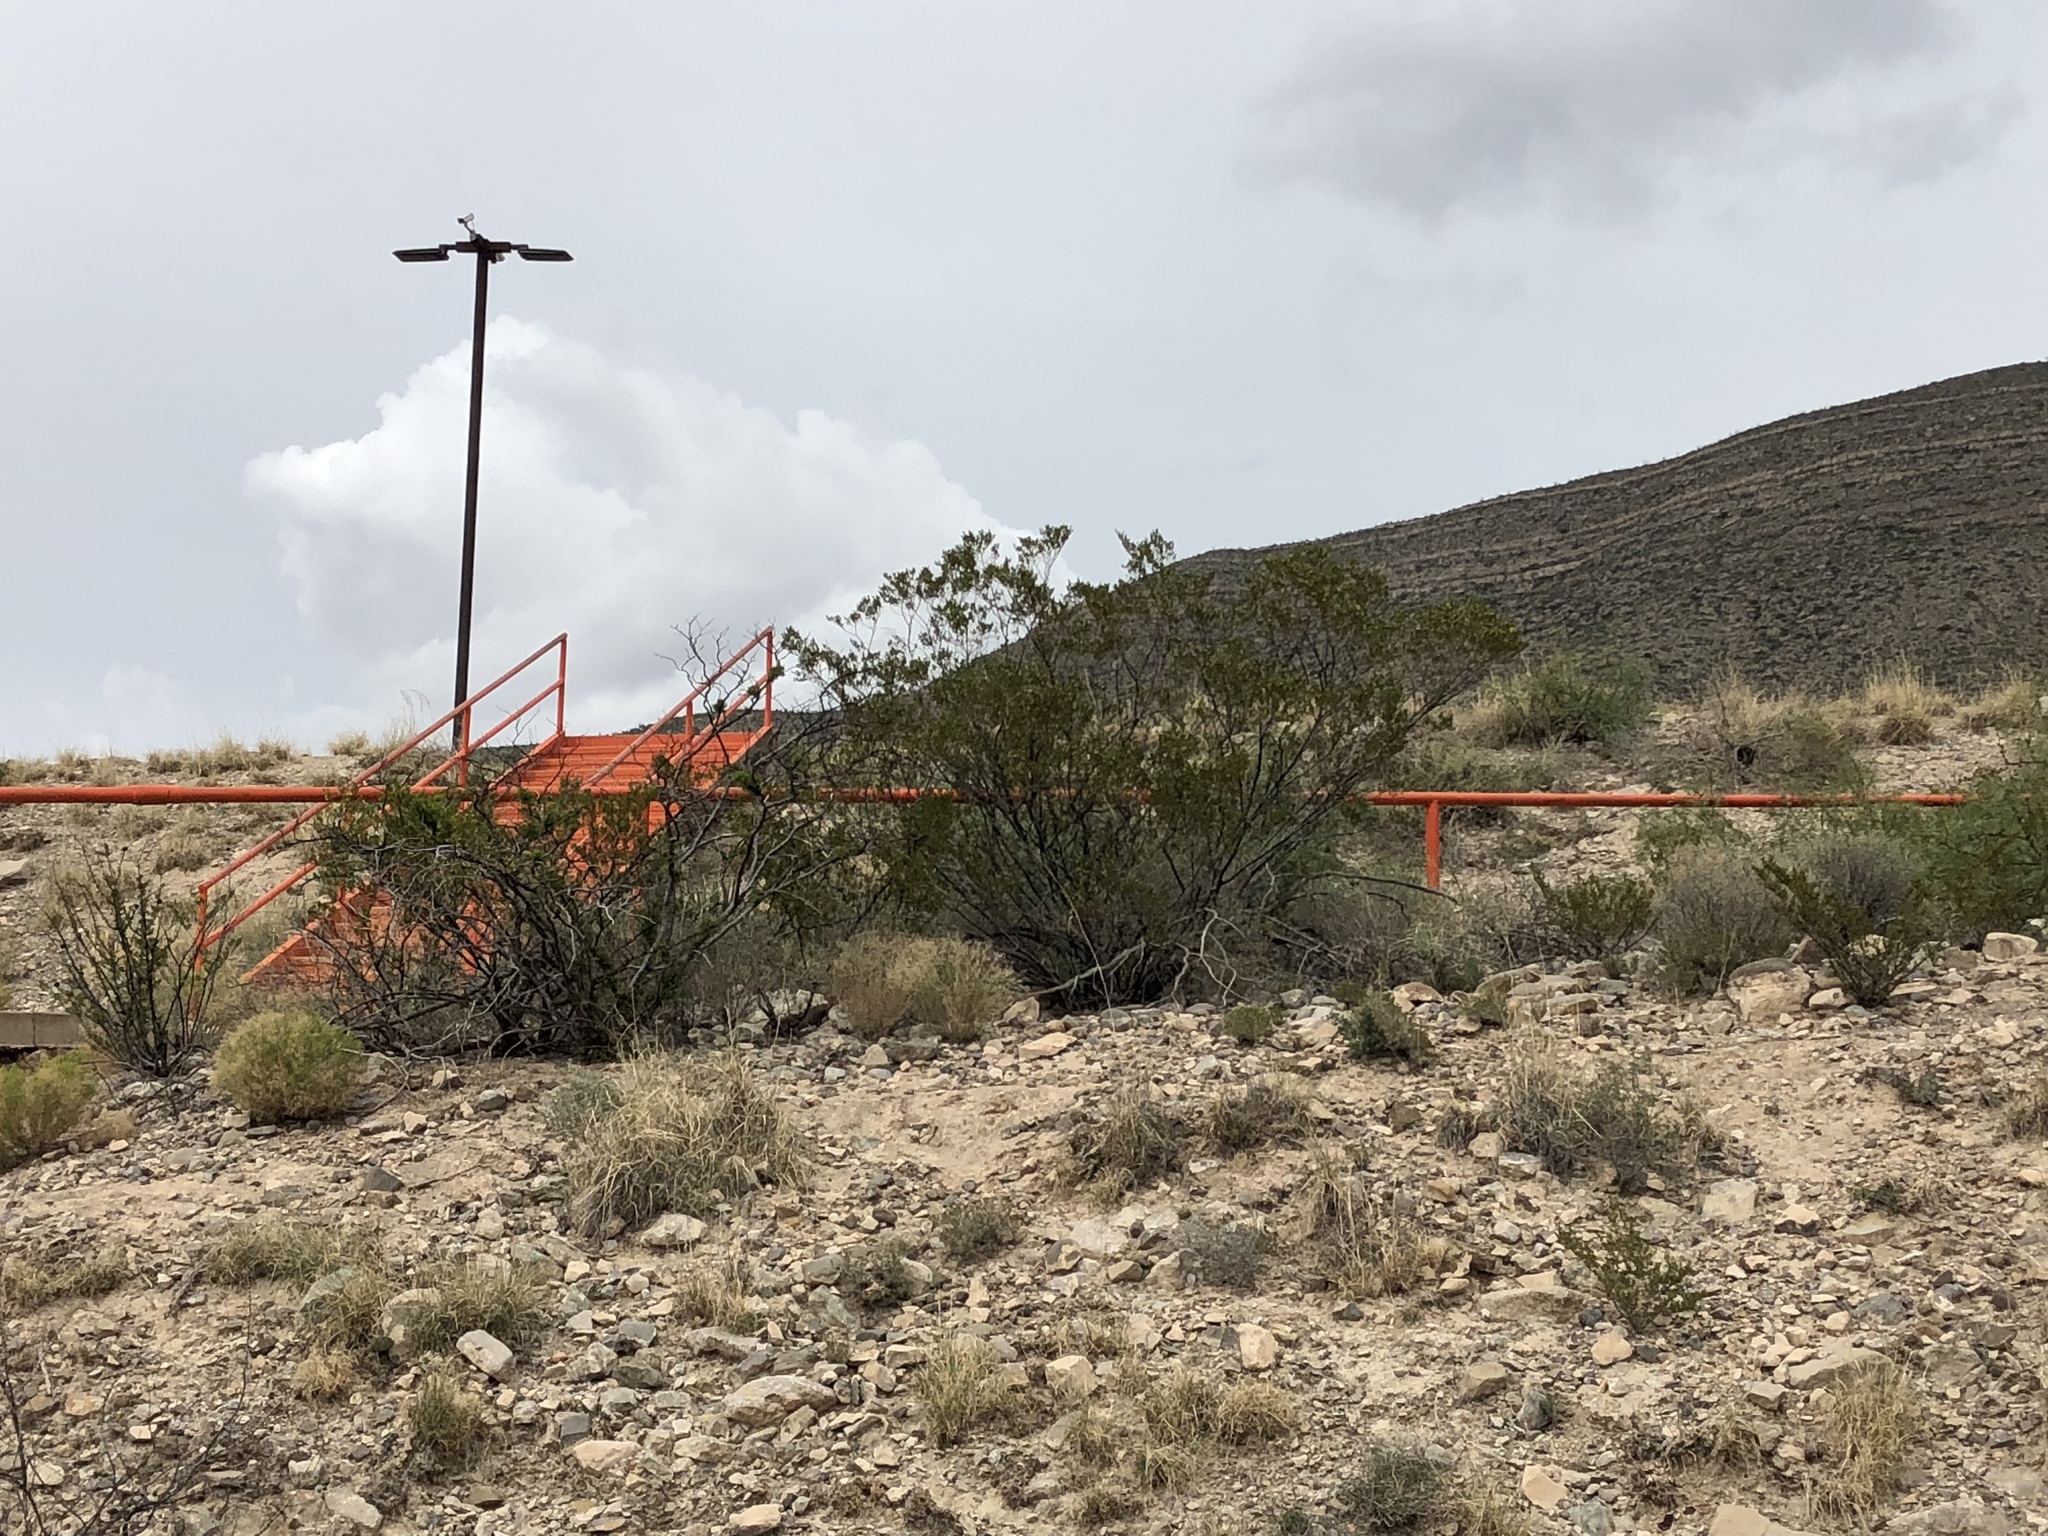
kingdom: Plantae
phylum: Tracheophyta
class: Magnoliopsida
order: Zygophyllales
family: Zygophyllaceae
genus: Larrea
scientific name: Larrea tridentata
